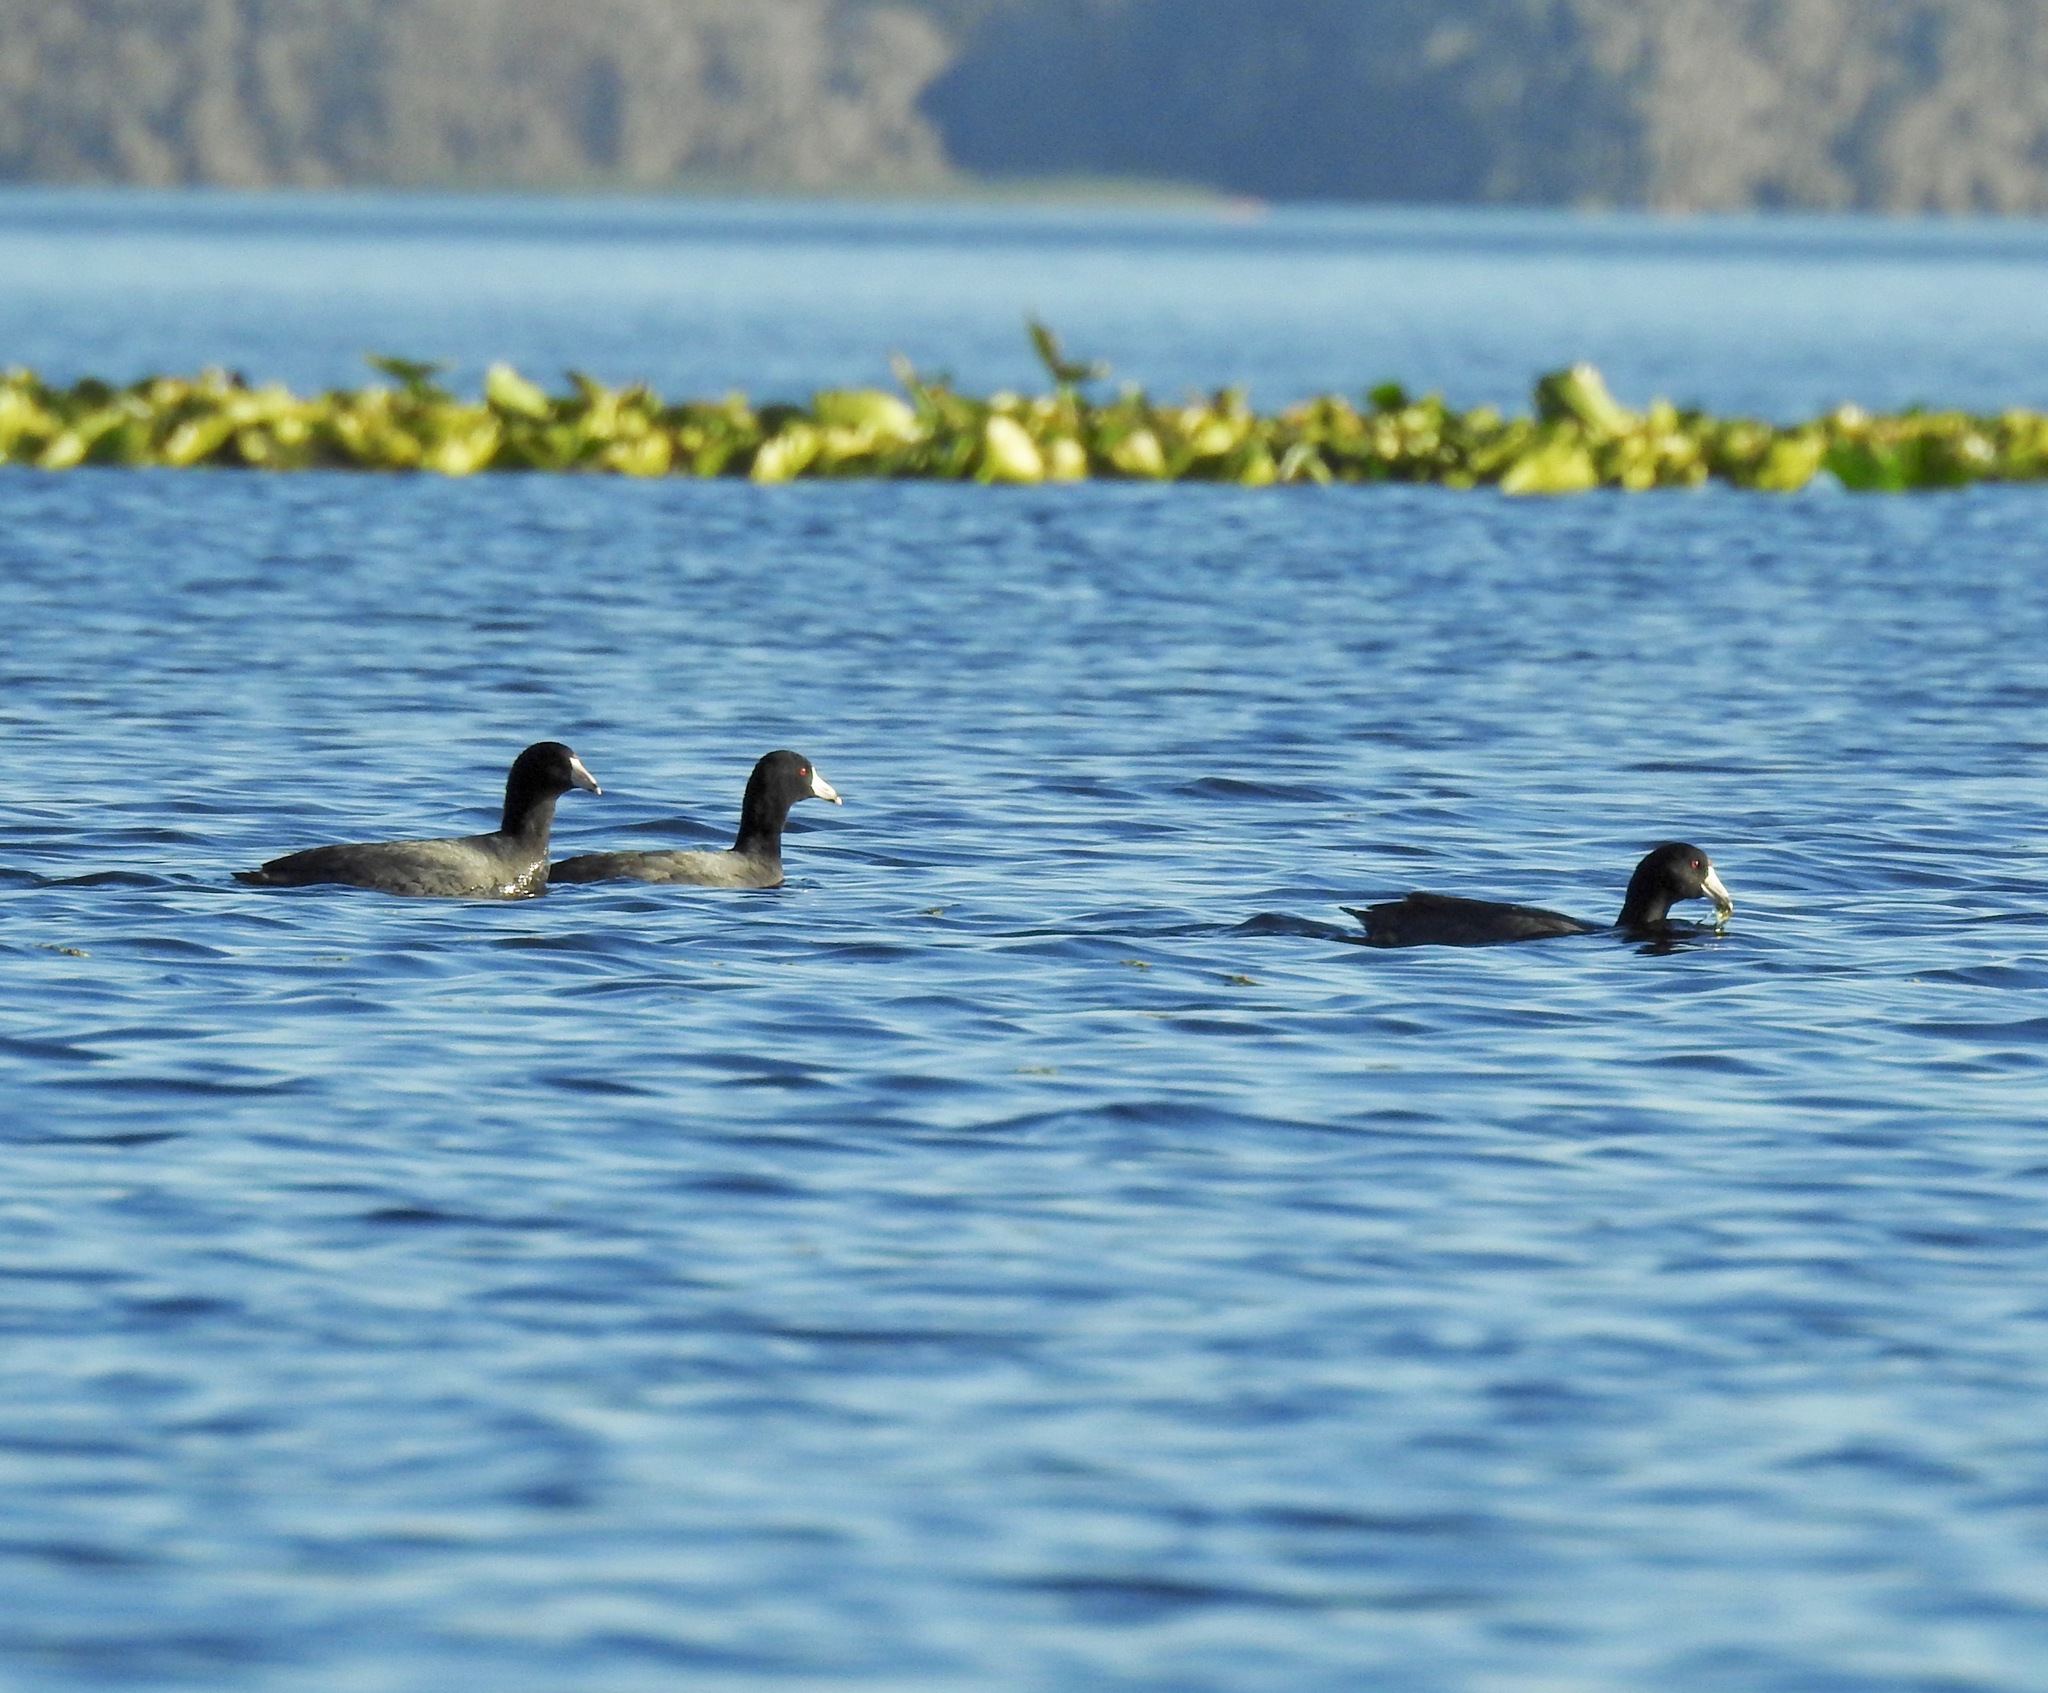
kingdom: Animalia
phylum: Chordata
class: Aves
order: Gruiformes
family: Rallidae
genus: Fulica
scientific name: Fulica americana
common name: American coot
